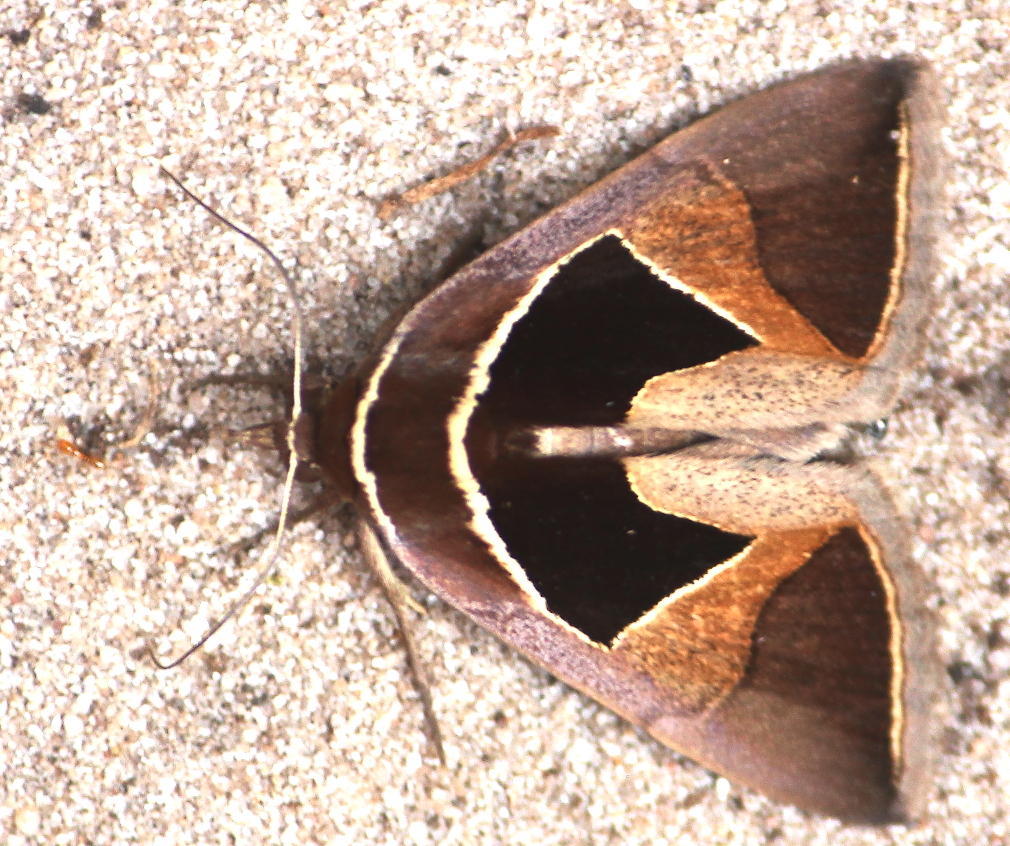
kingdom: Animalia
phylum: Arthropoda
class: Insecta
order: Lepidoptera
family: Erebidae
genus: Fodina
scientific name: Fodina embolophora
